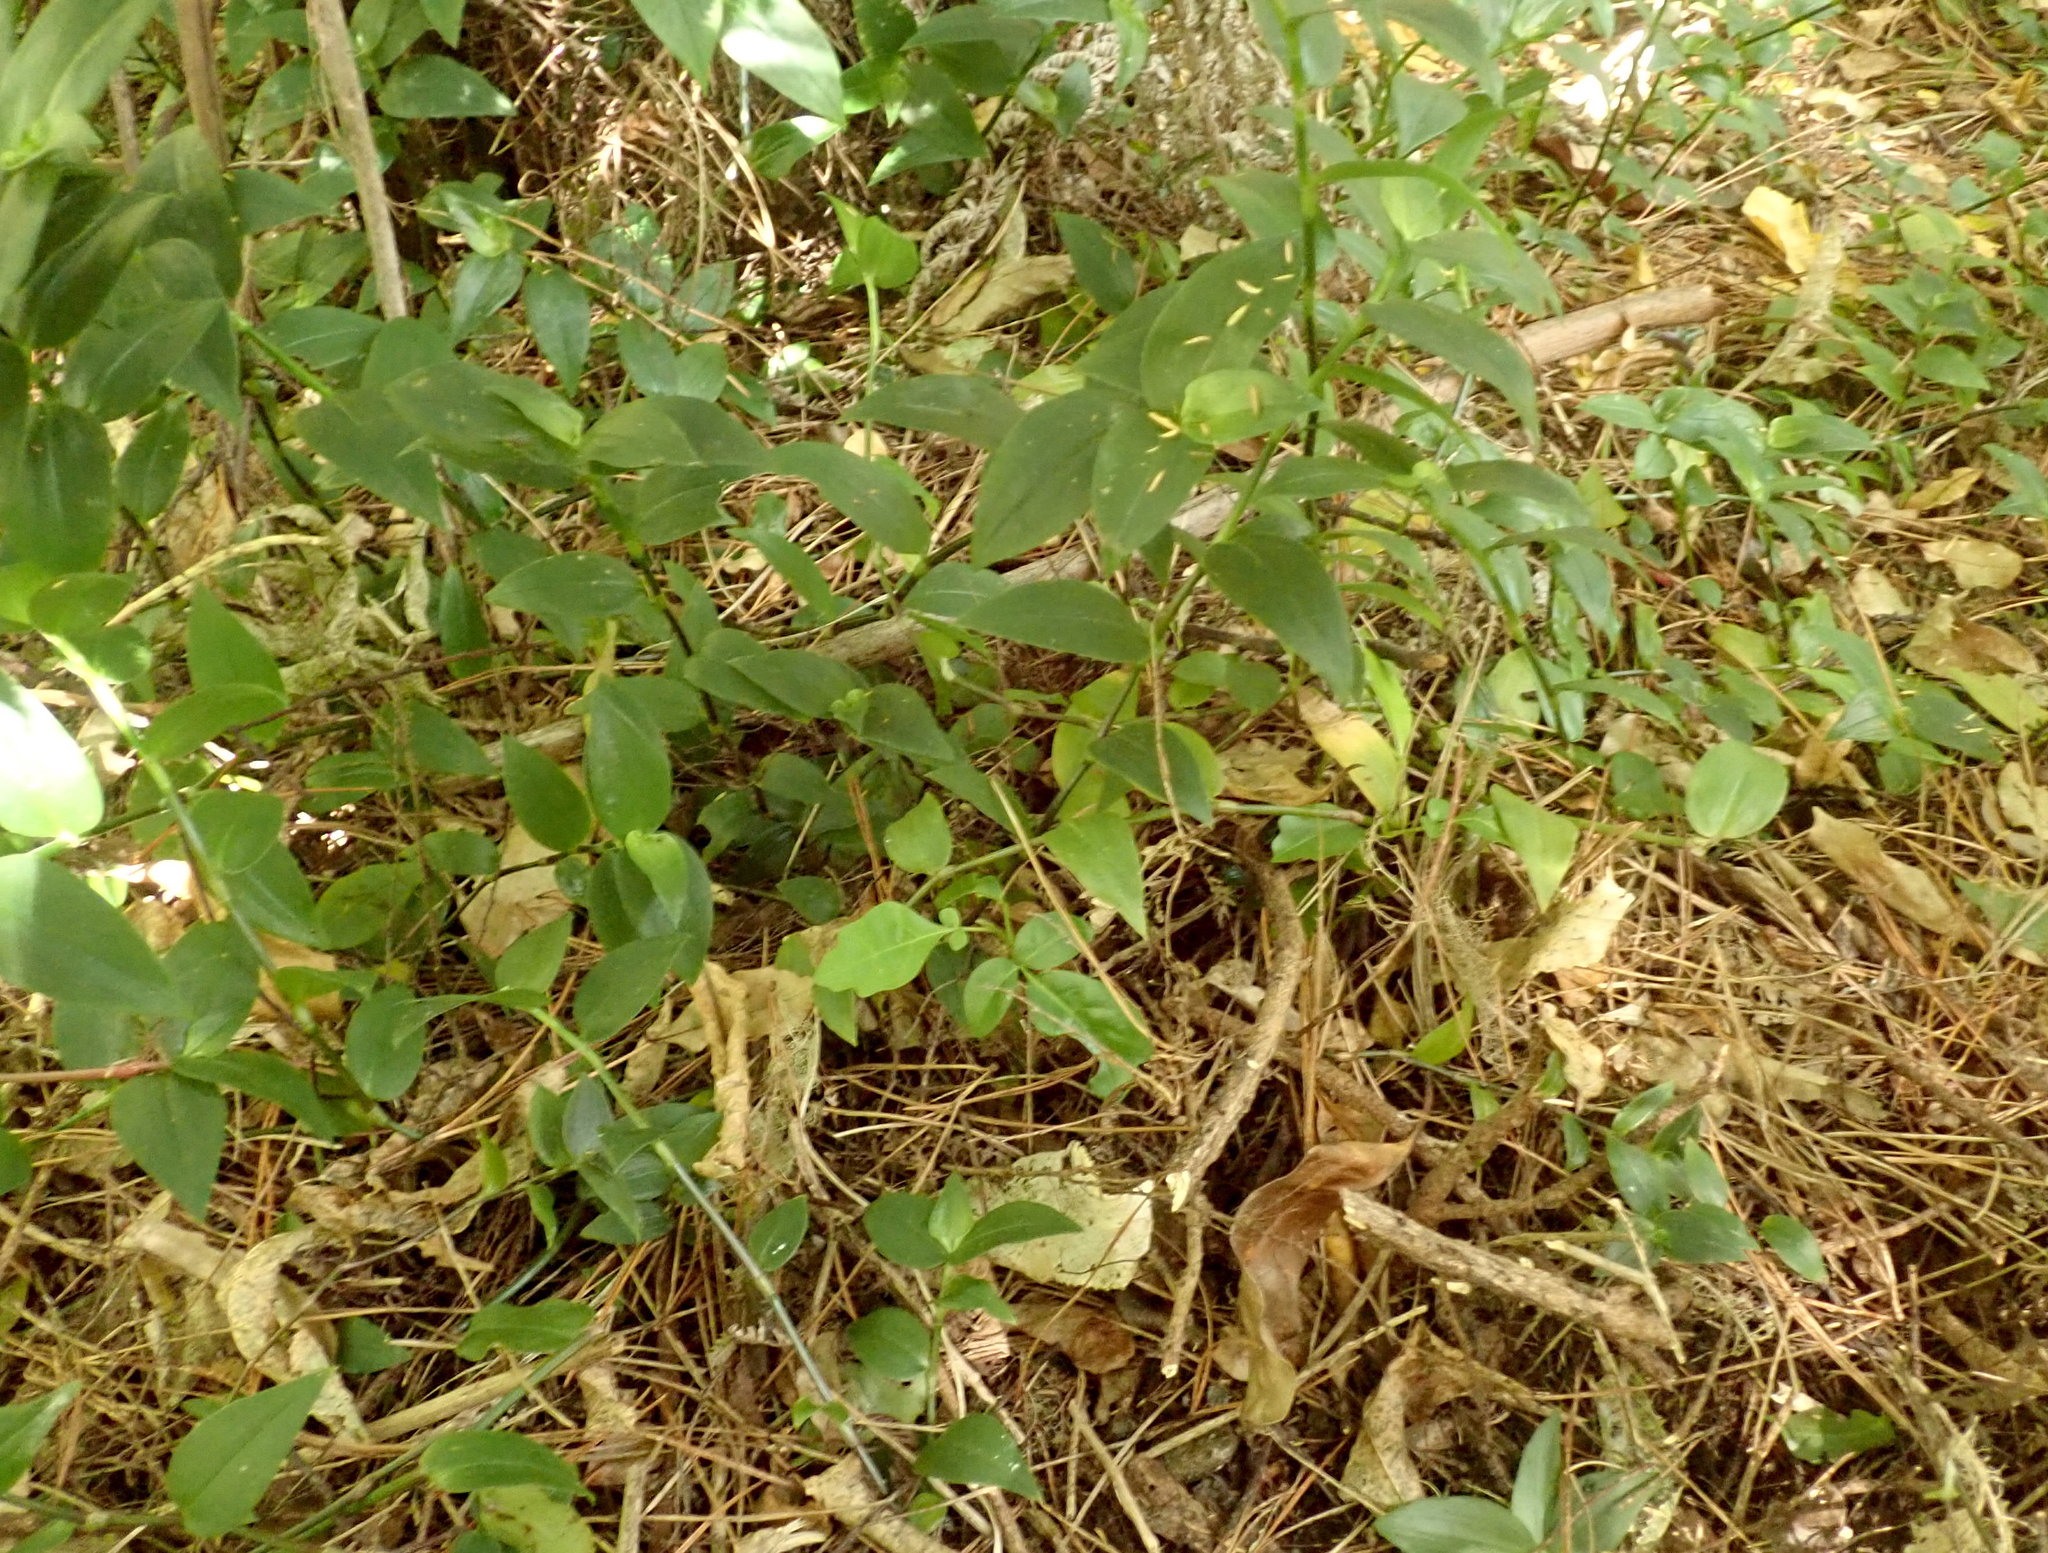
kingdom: Plantae
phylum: Tracheophyta
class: Liliopsida
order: Commelinales
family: Commelinaceae
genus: Tradescantia
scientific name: Tradescantia fluminensis
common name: Wandering-jew
